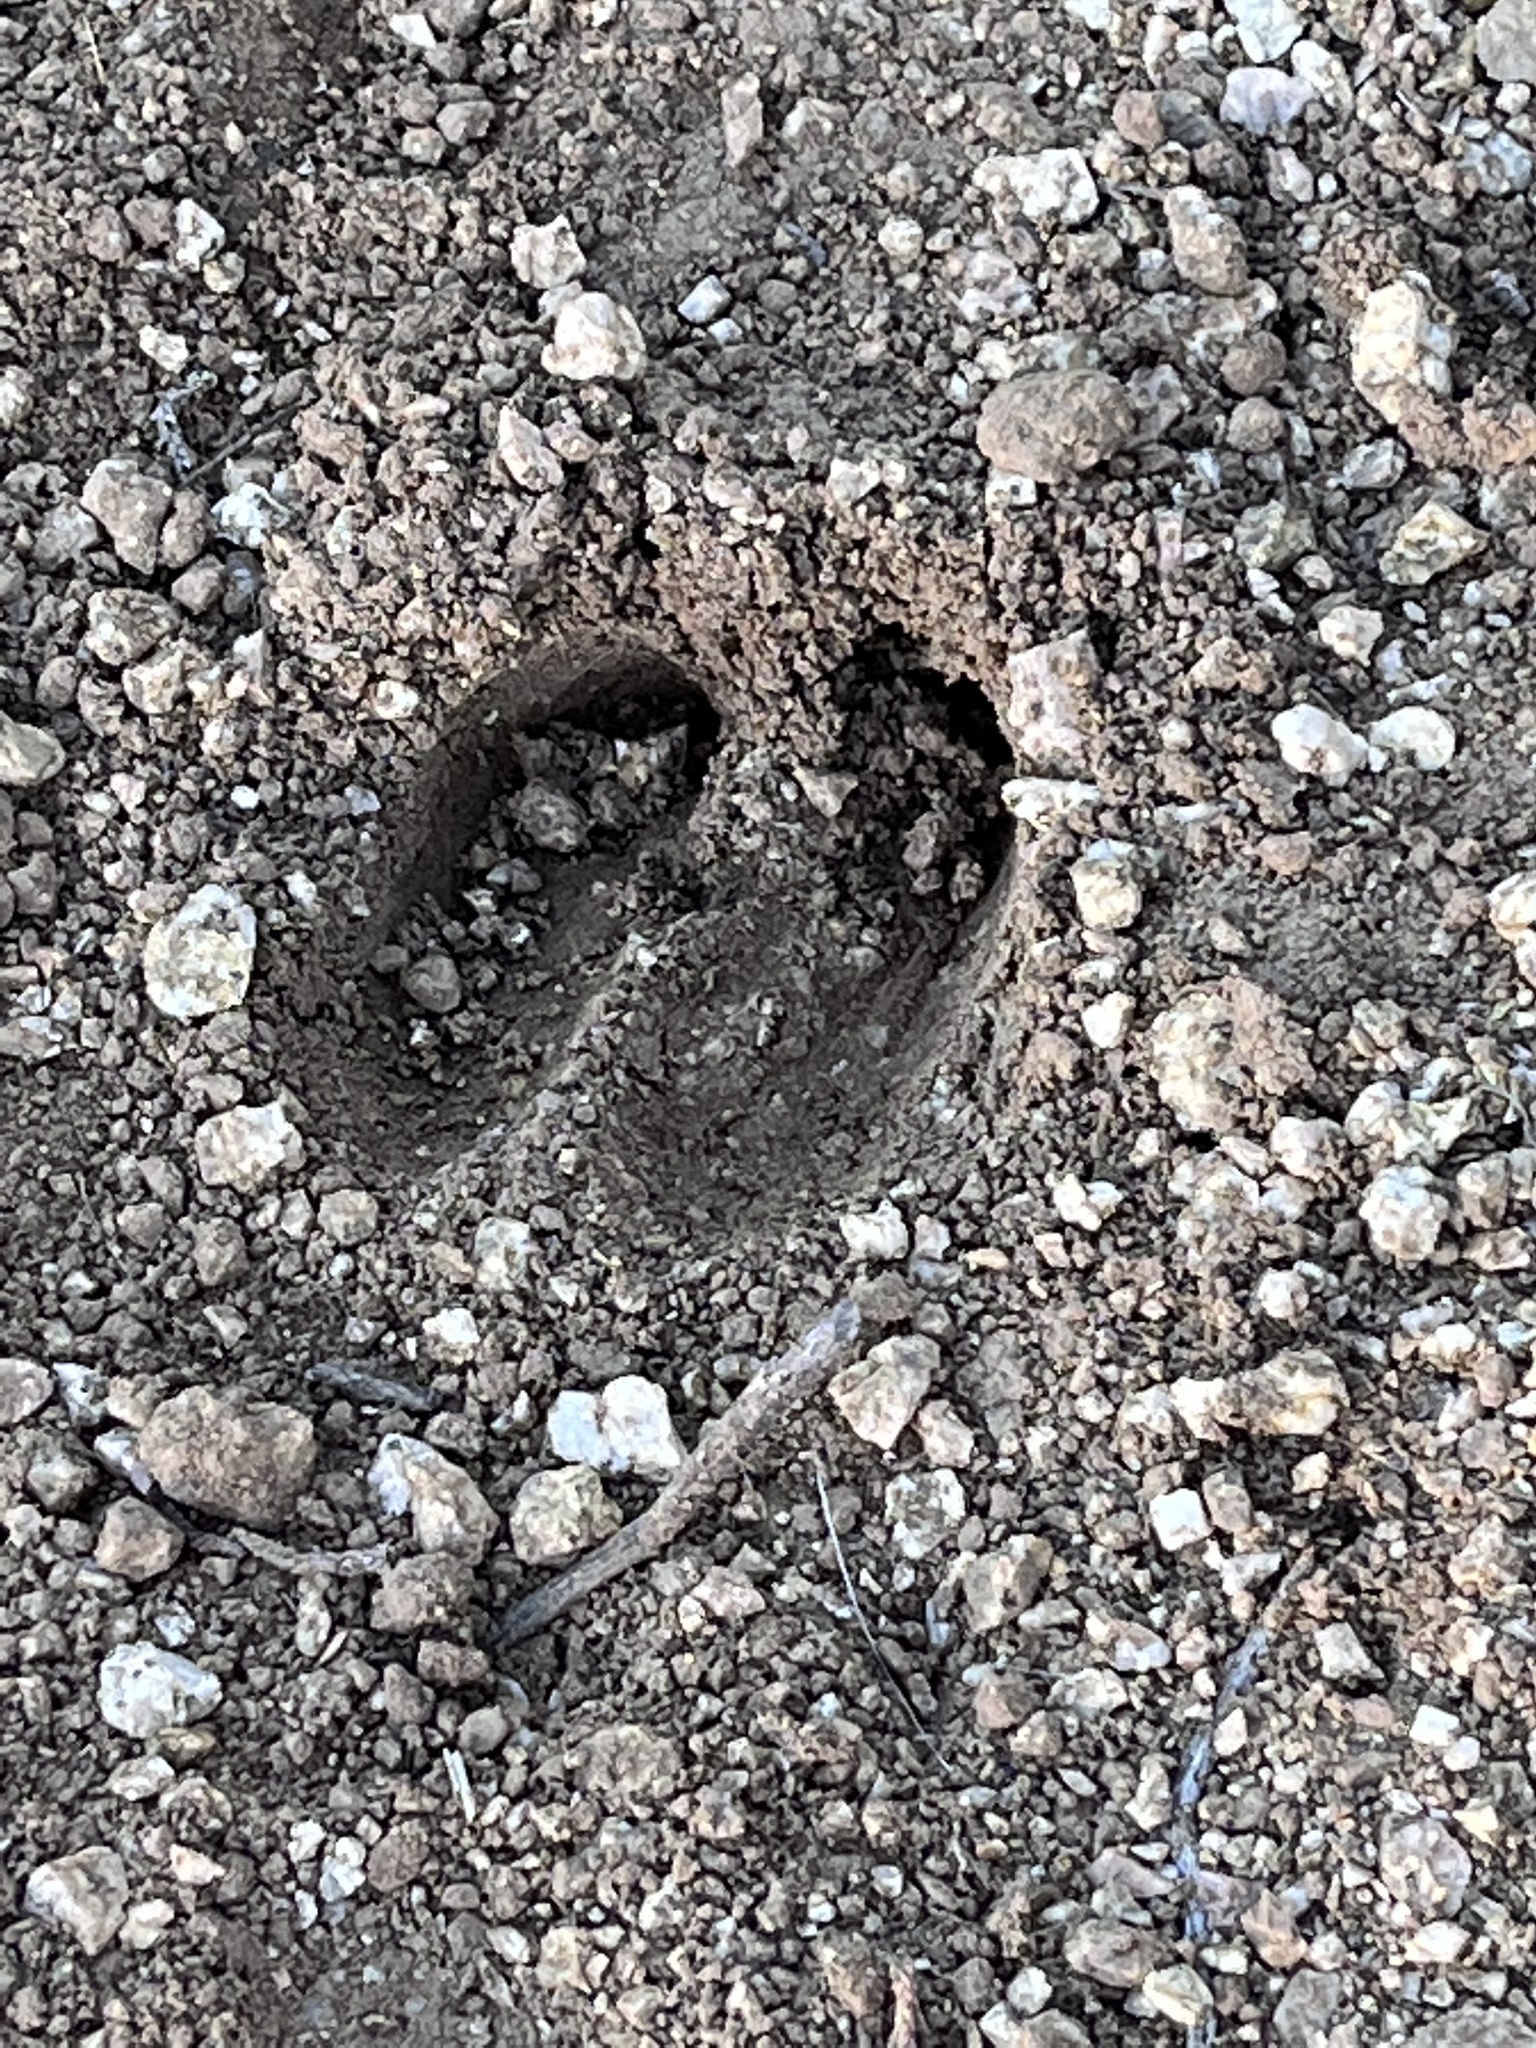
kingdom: Animalia
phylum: Chordata
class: Mammalia
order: Artiodactyla
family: Cervidae
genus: Odocoileus
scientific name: Odocoileus hemionus
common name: Mule deer
